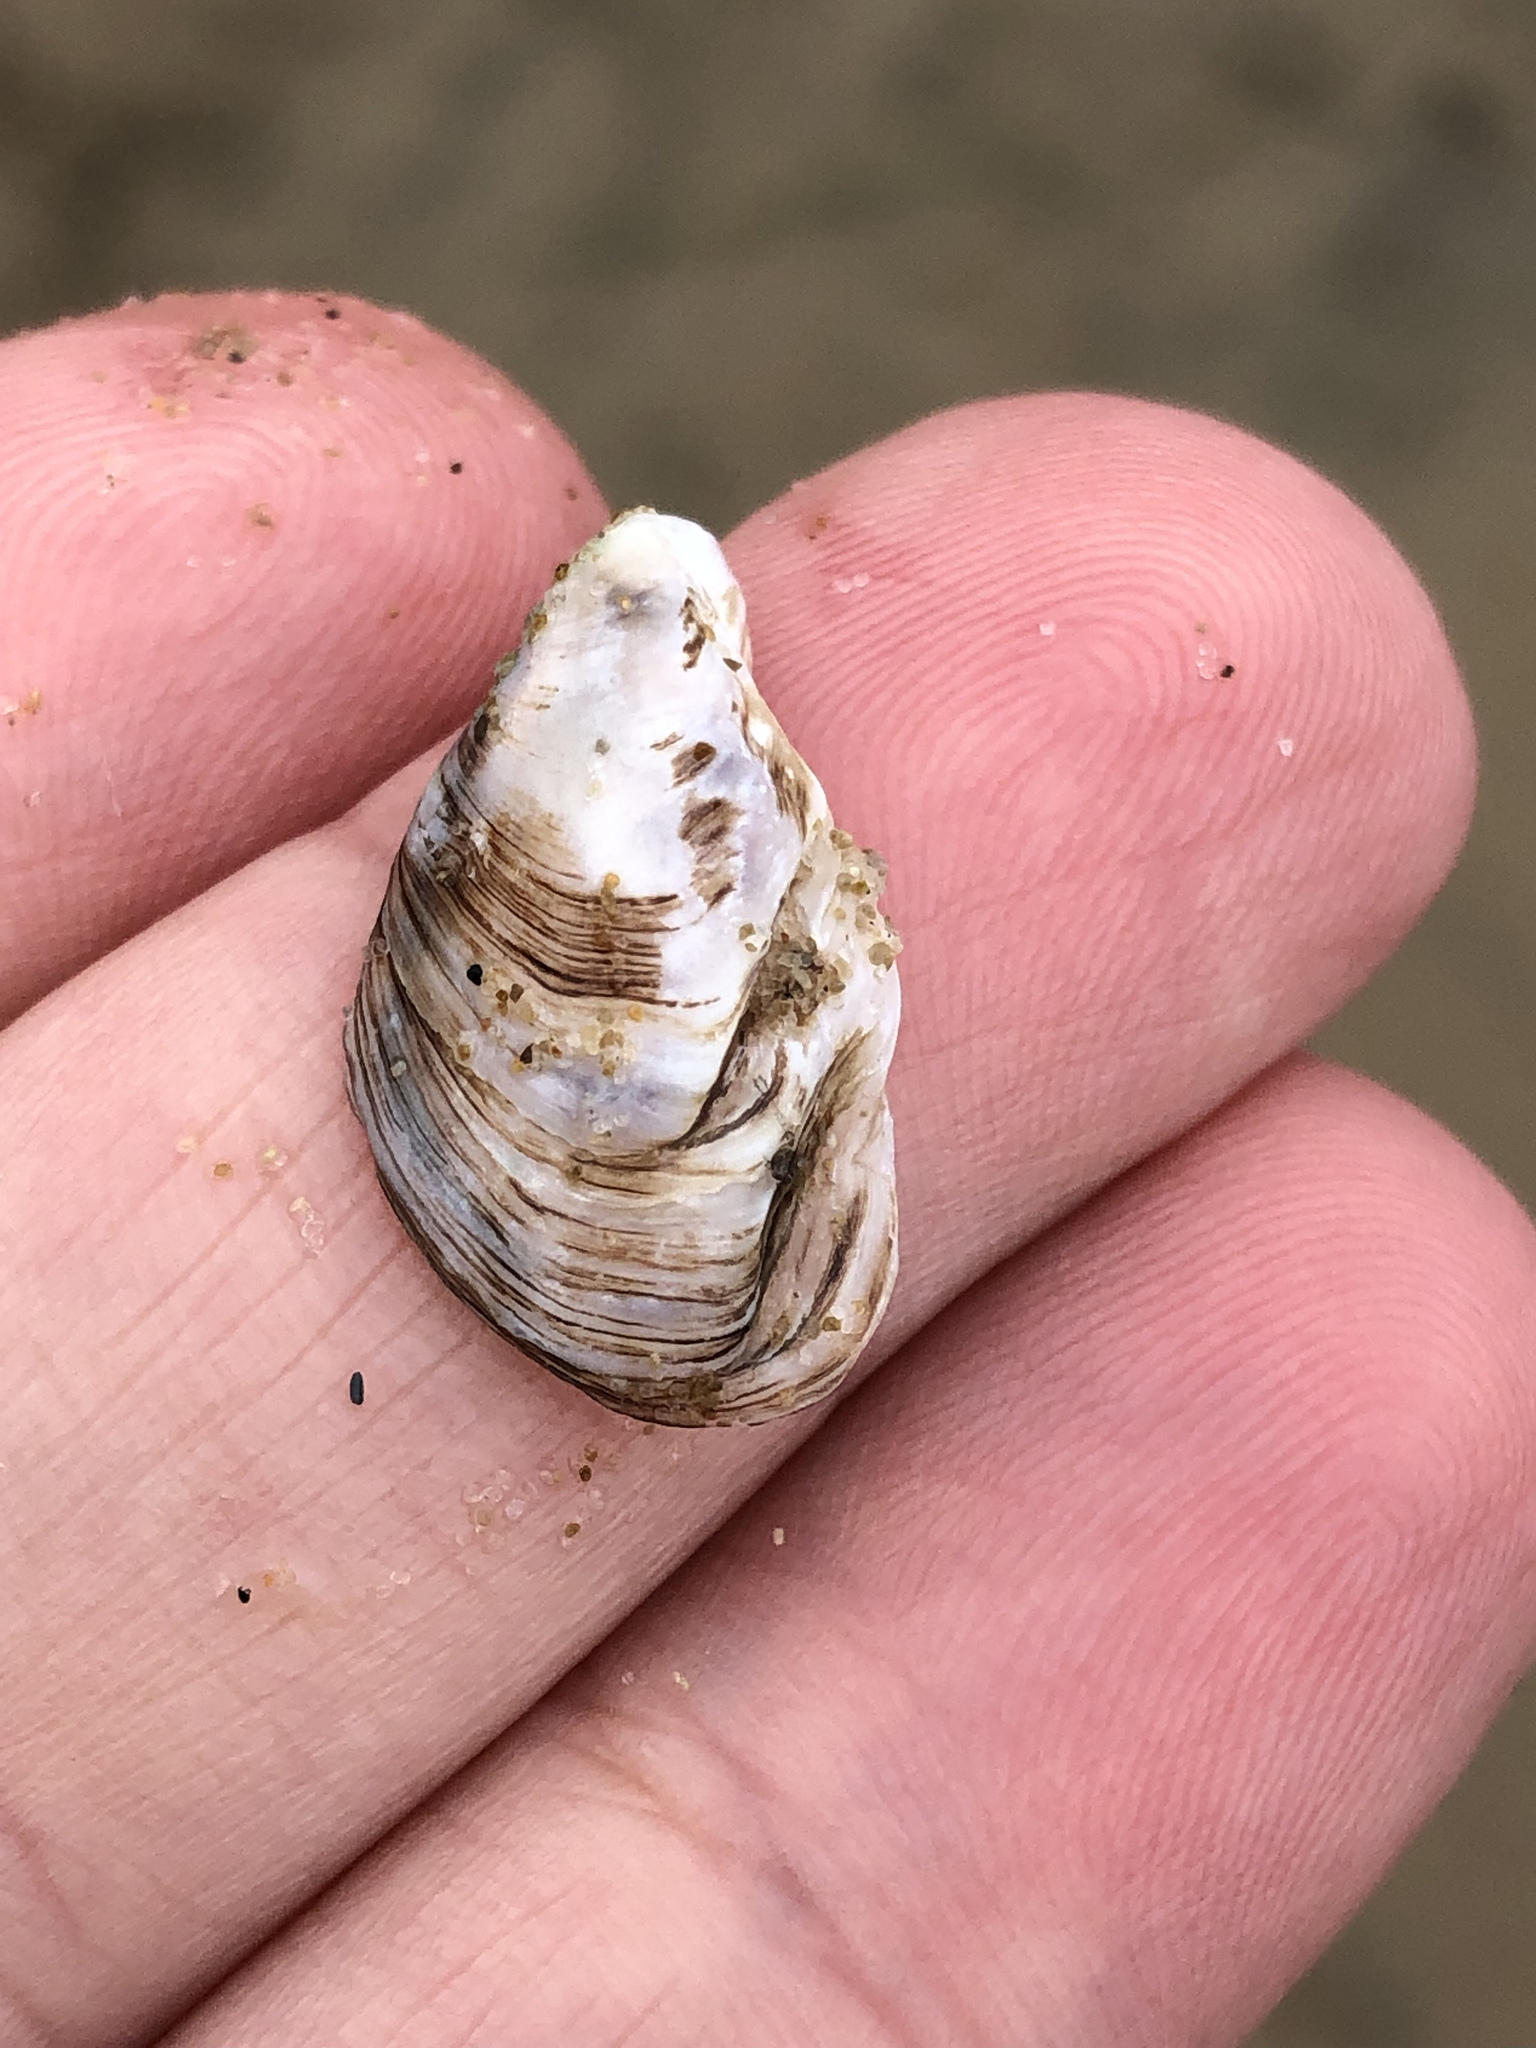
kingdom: Animalia
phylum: Mollusca
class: Bivalvia
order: Myida
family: Dreissenidae
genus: Dreissena
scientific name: Dreissena bugensis
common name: Quagga mussel
